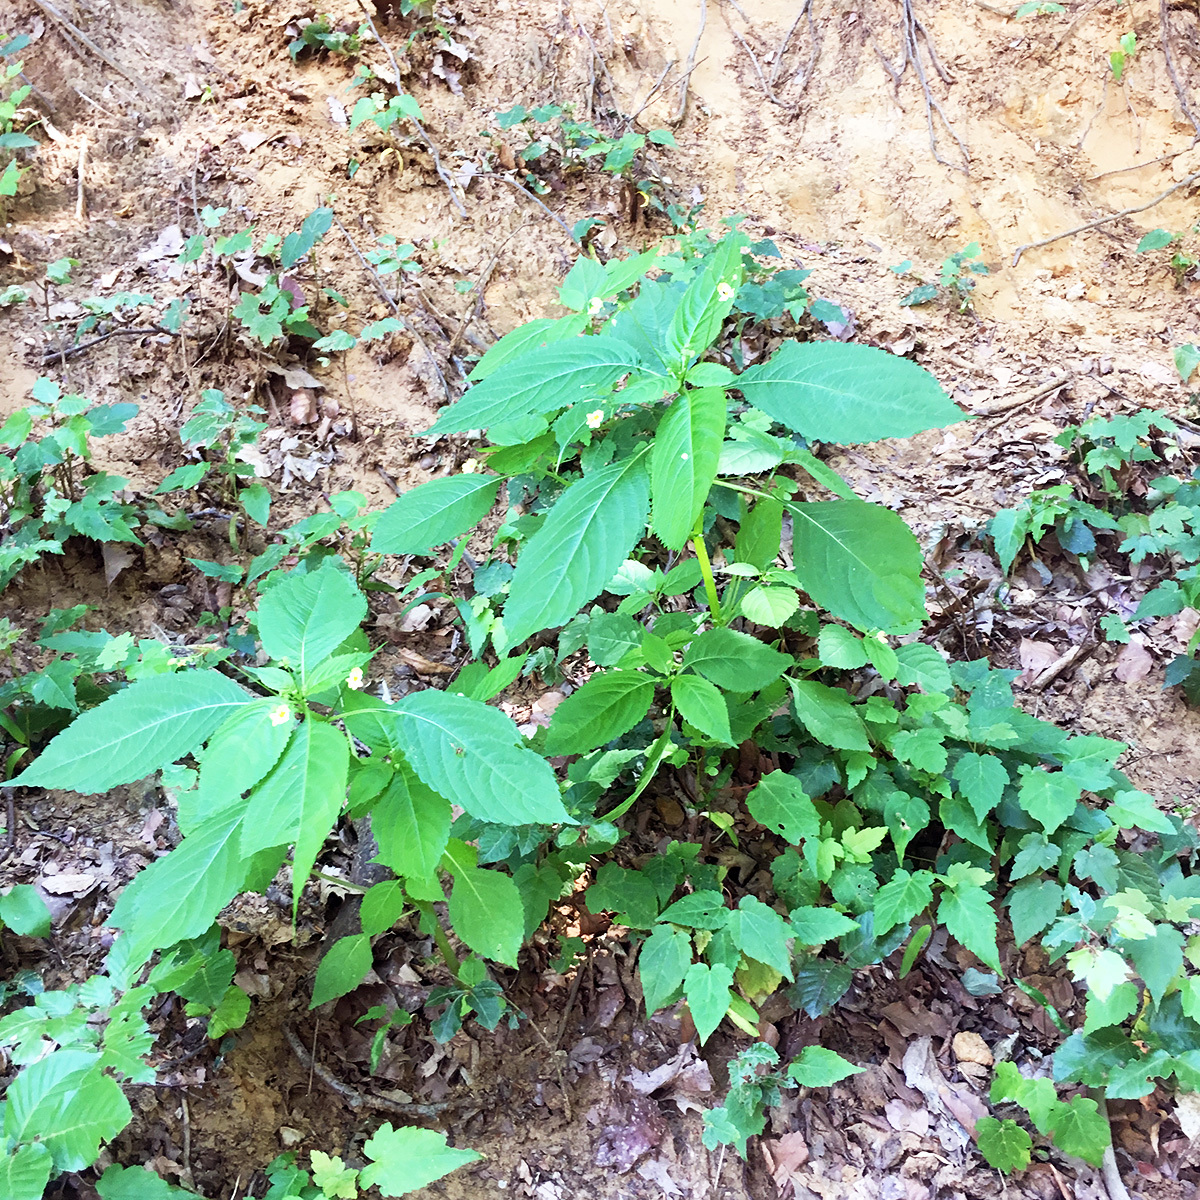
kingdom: Plantae
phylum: Tracheophyta
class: Magnoliopsida
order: Ericales
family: Balsaminaceae
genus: Impatiens
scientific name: Impatiens parviflora
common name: Small balsam
